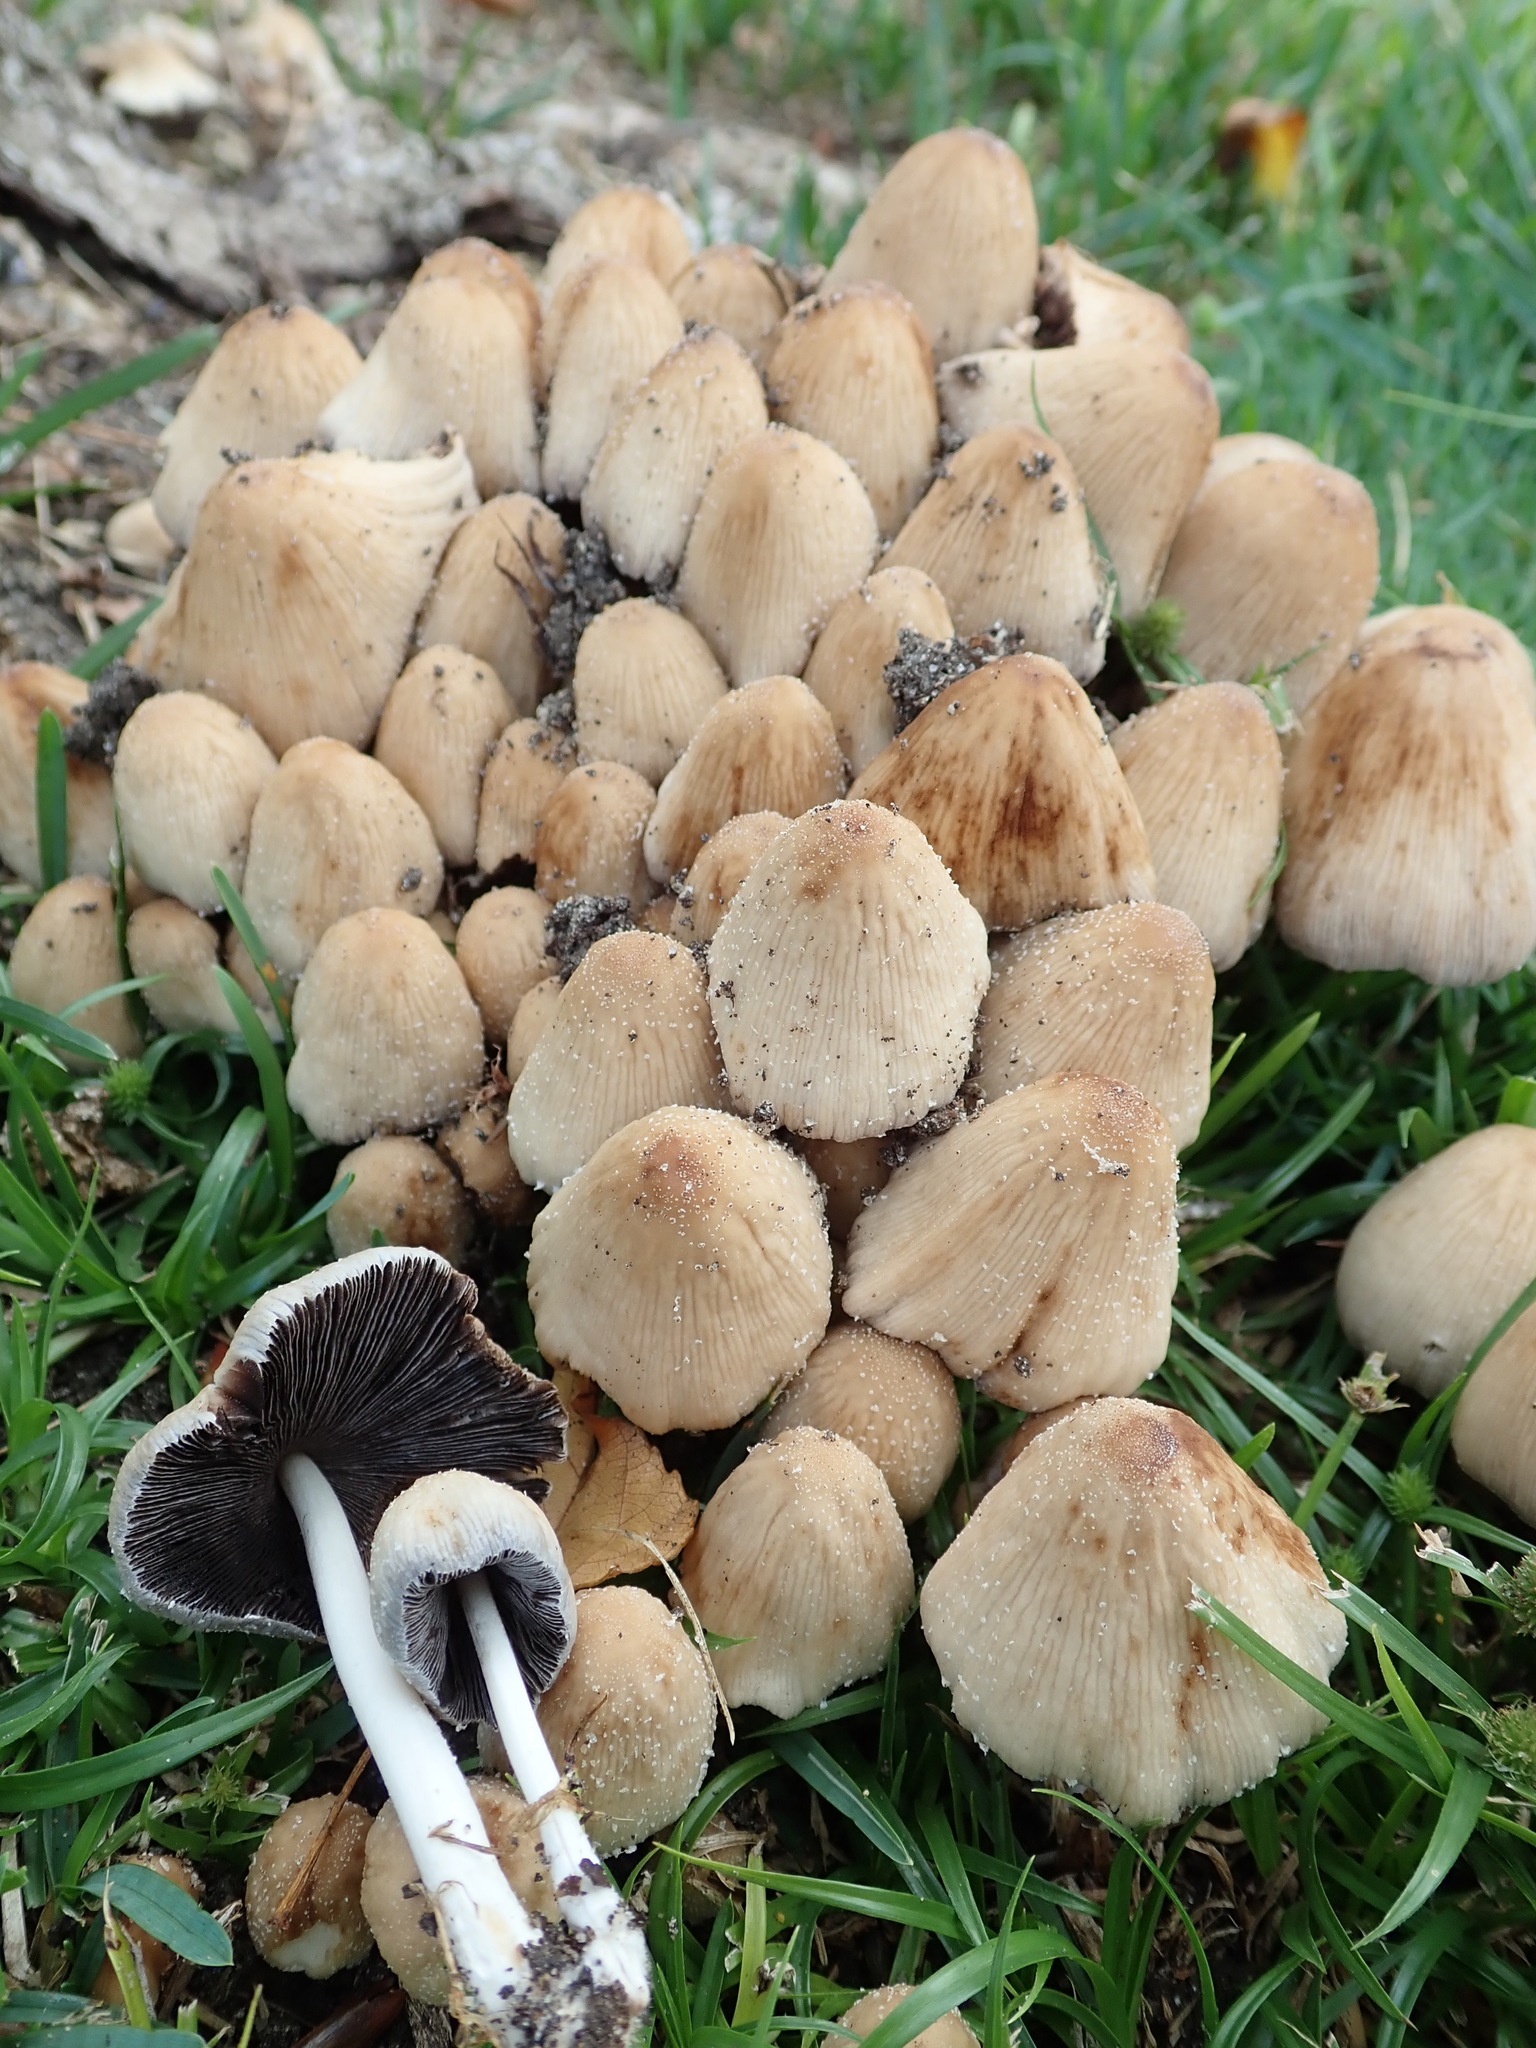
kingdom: Fungi
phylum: Basidiomycota
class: Agaricomycetes
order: Agaricales
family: Psathyrellaceae
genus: Coprinellus
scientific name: Coprinellus micaceus
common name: Glistening ink-cap
